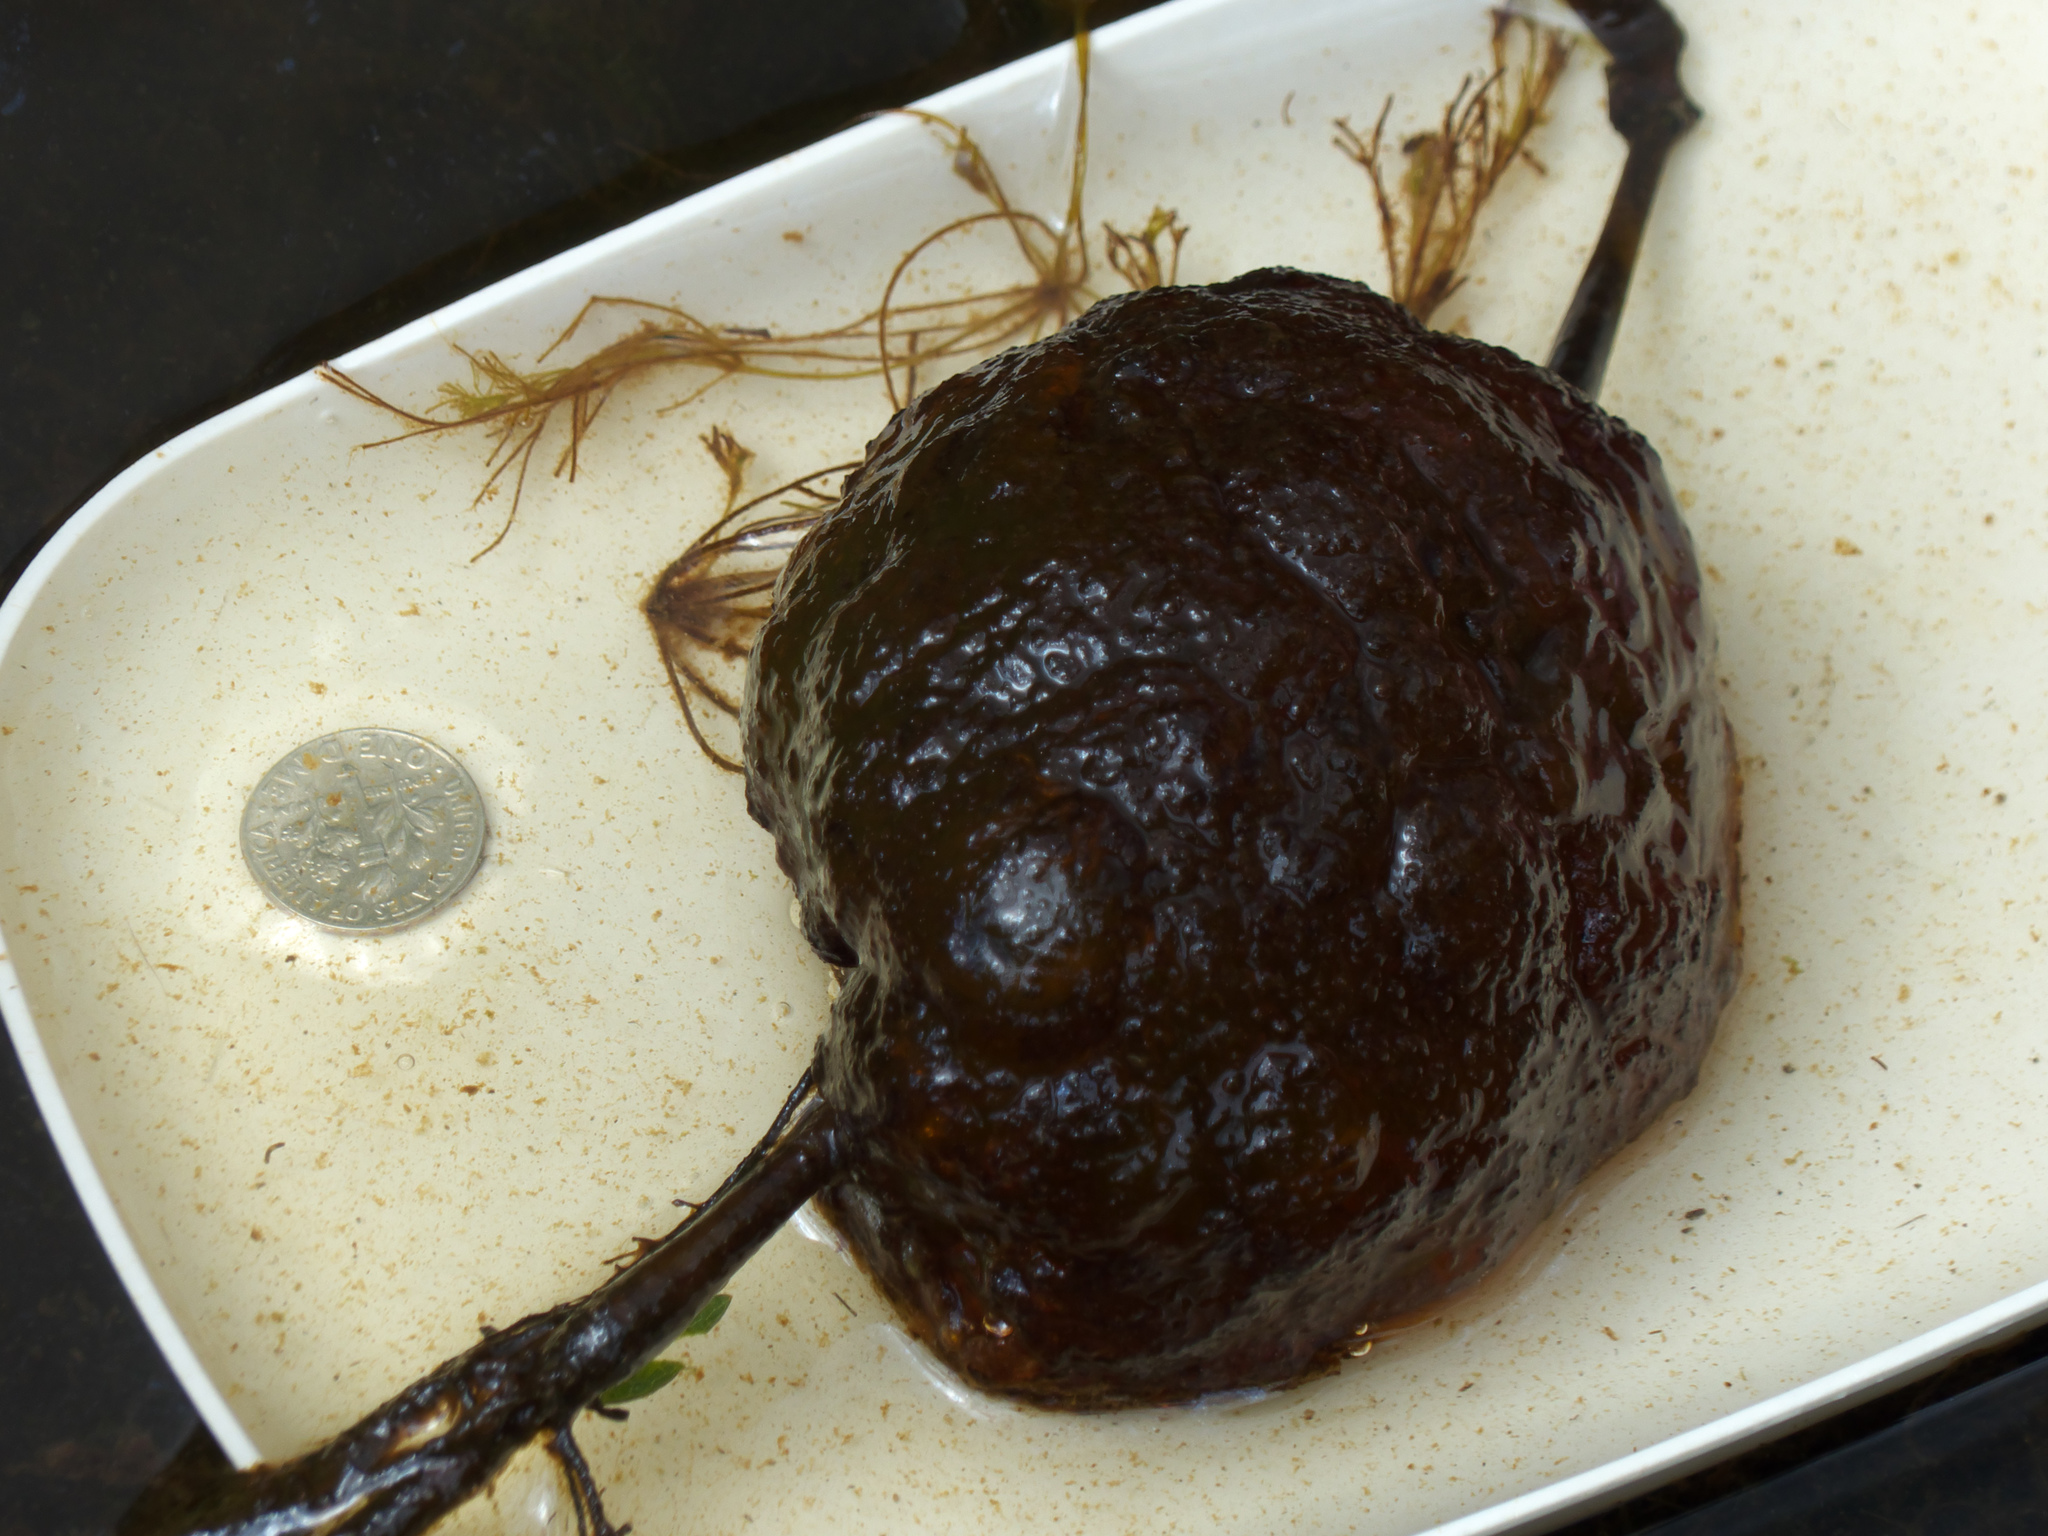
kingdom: Animalia
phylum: Chordata
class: Amphibia
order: Caudata
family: Ambystomatidae
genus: Ambystoma
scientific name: Ambystoma gracile
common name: Northwestern salamander
